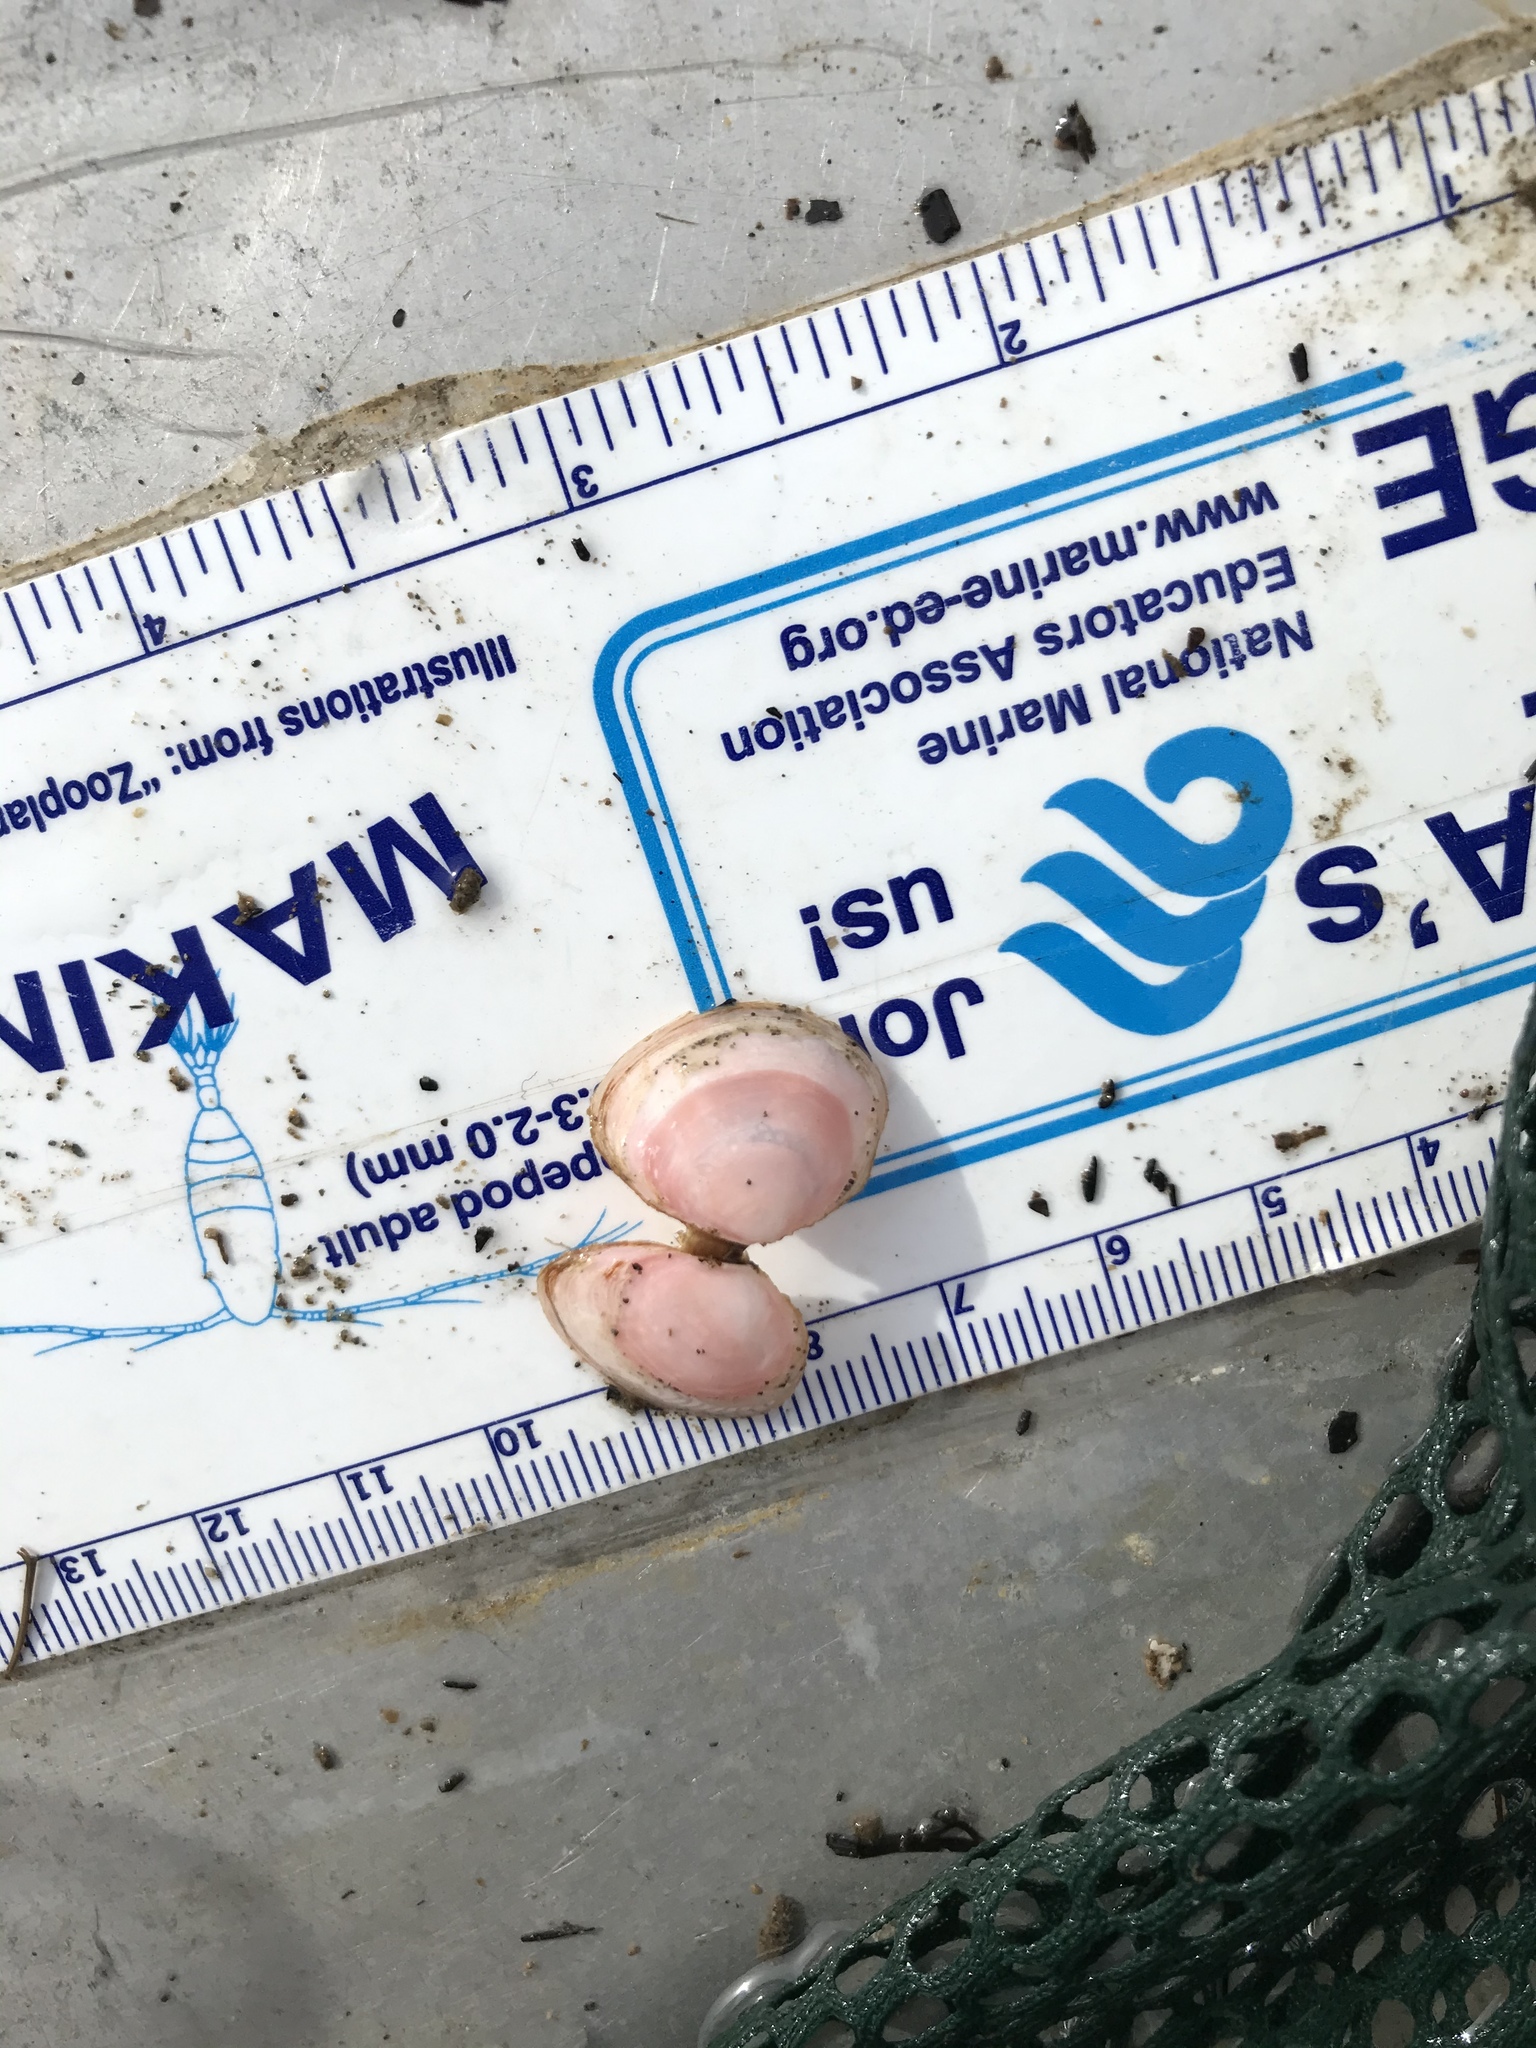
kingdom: Animalia
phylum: Mollusca
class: Bivalvia
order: Cardiida
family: Tellinidae
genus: Macoma
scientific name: Macoma balthica
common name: Baltic tellin
